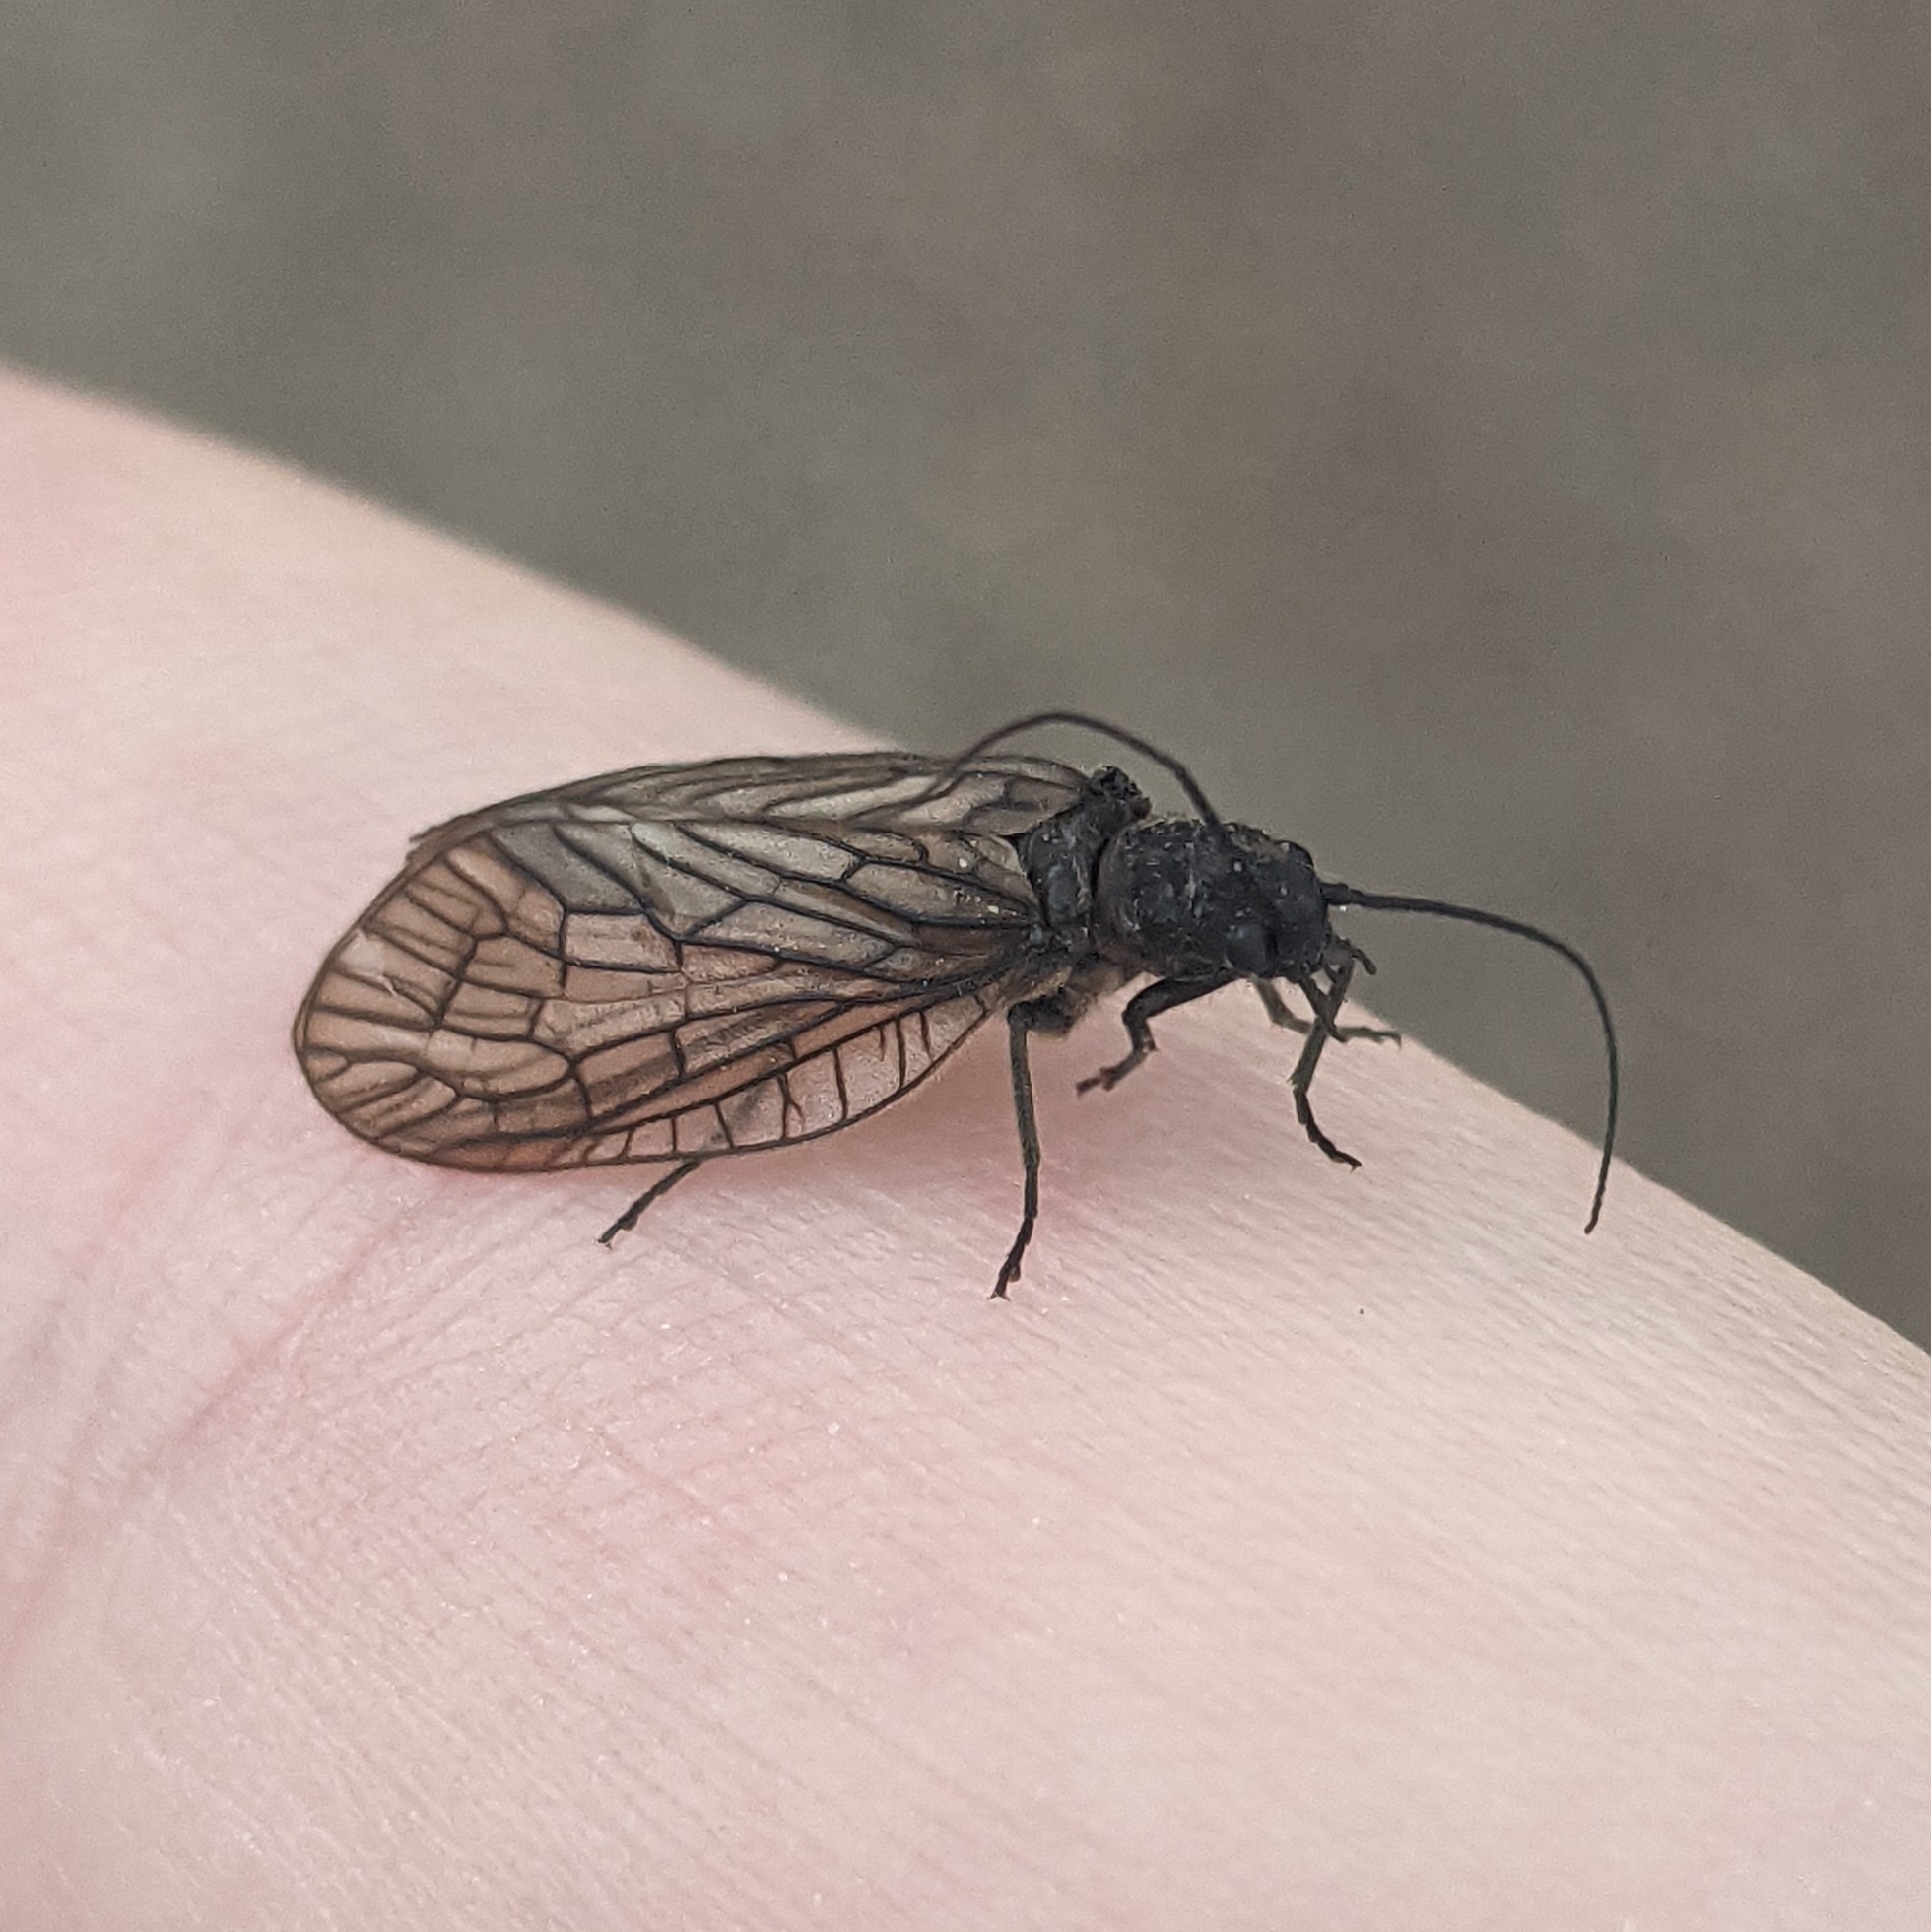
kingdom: Animalia
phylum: Arthropoda
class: Insecta
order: Megaloptera
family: Sialidae
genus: Sialis
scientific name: Sialis
